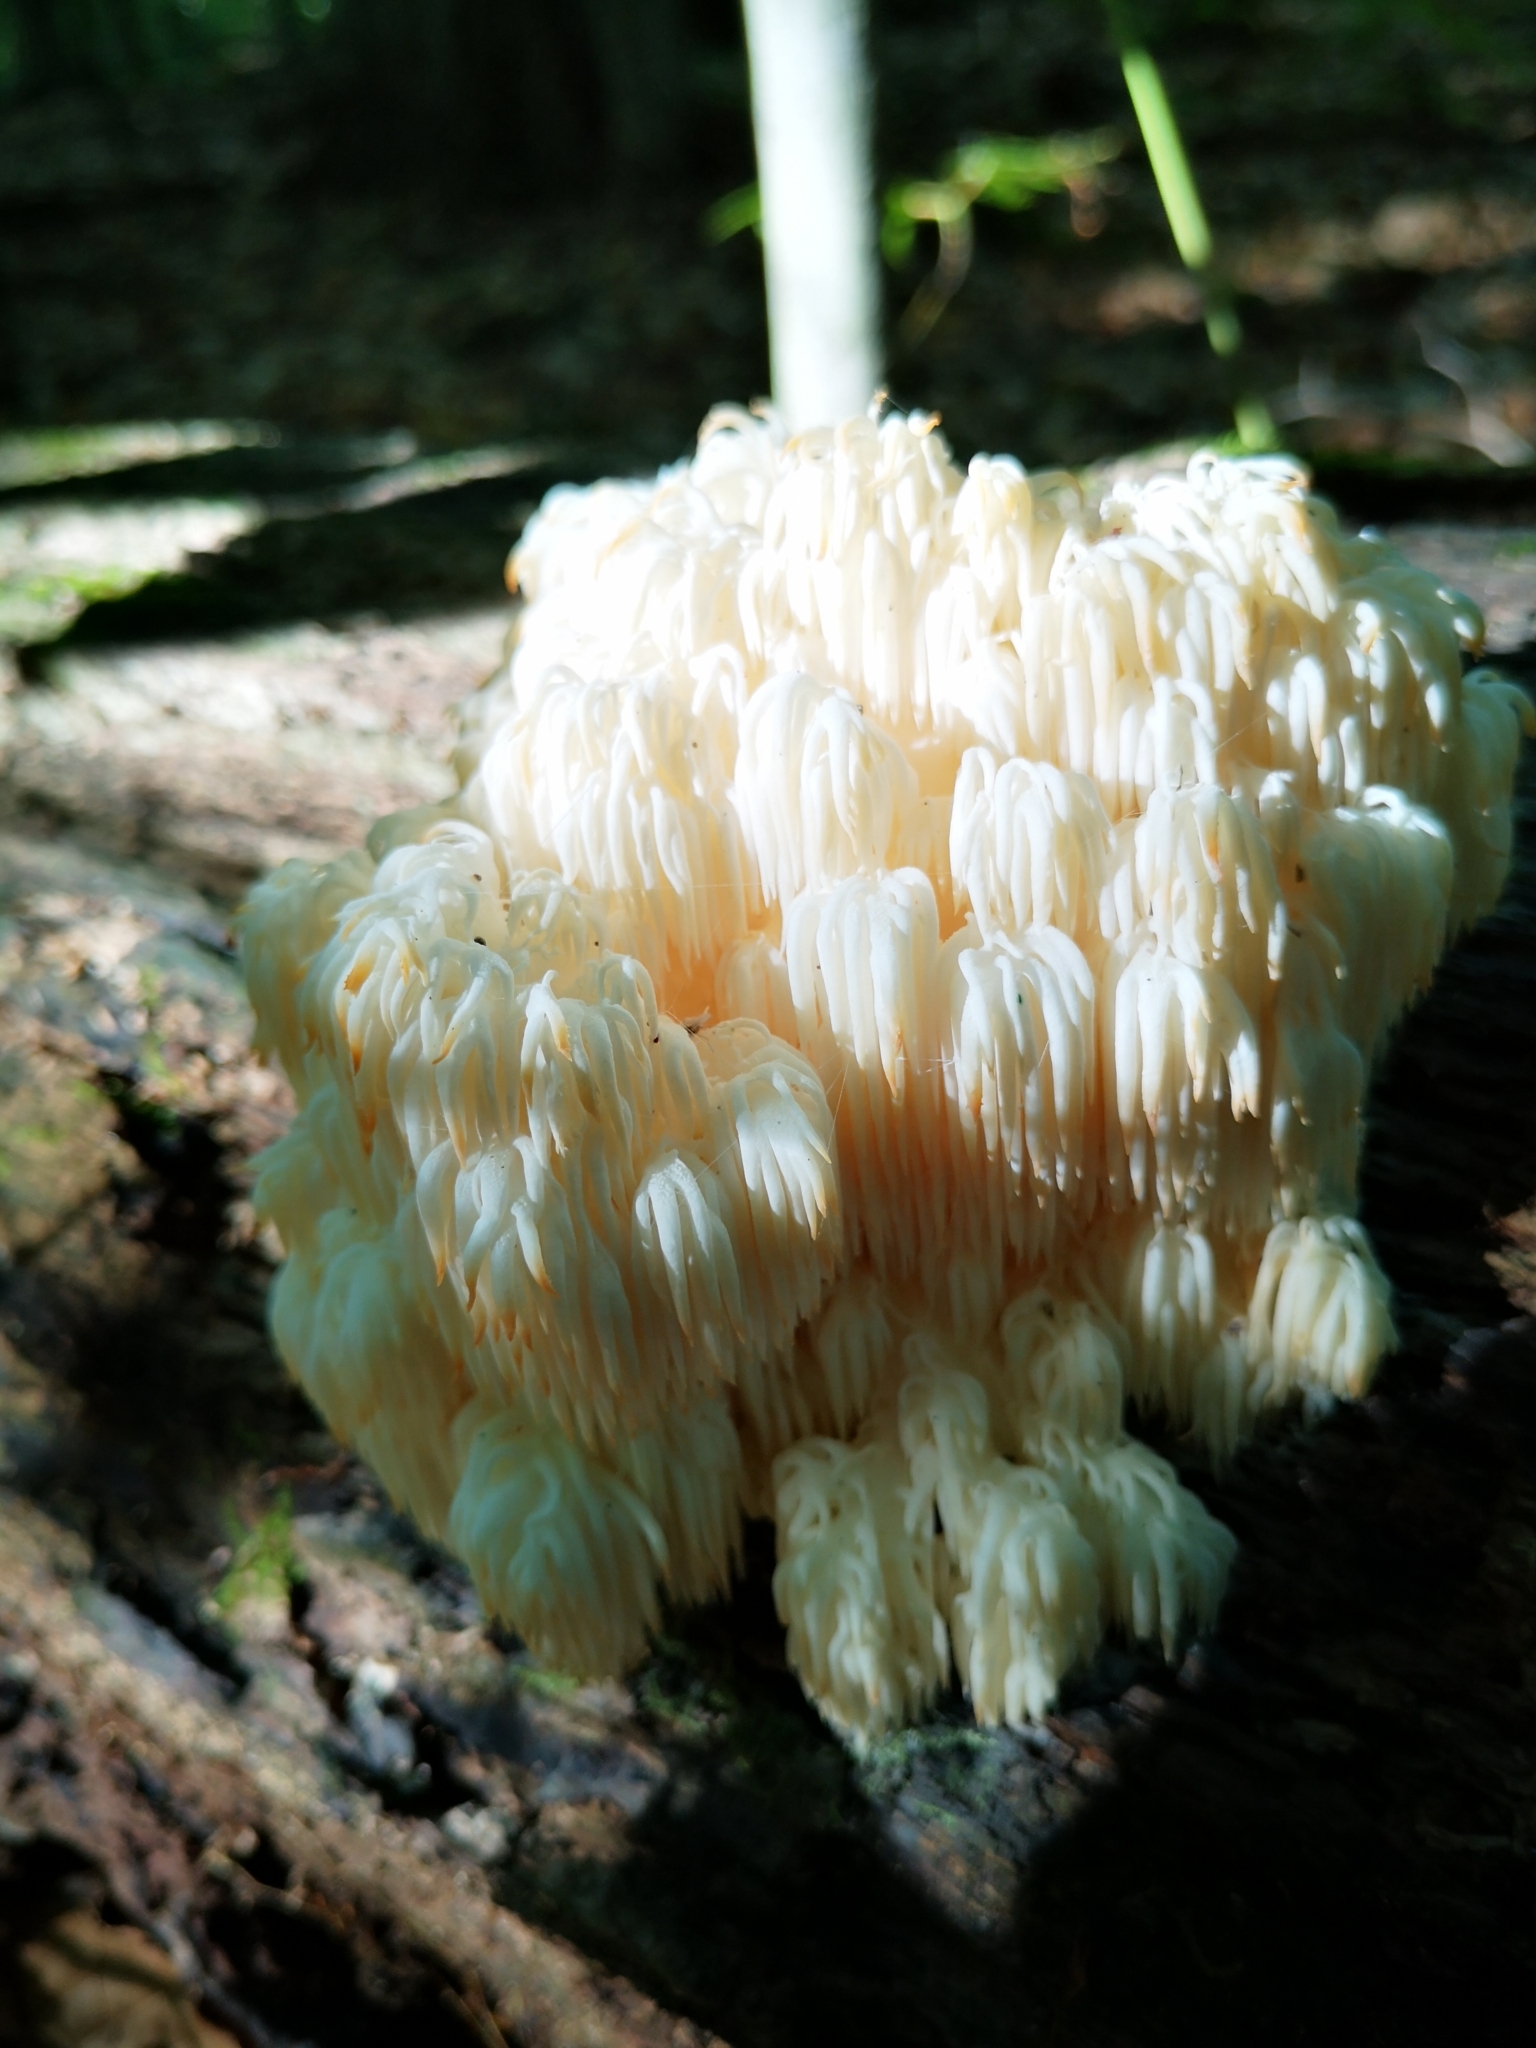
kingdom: Fungi
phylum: Basidiomycota
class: Agaricomycetes
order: Russulales
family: Hericiaceae
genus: Hericium
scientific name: Hericium americanum
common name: Bear's head tooth
